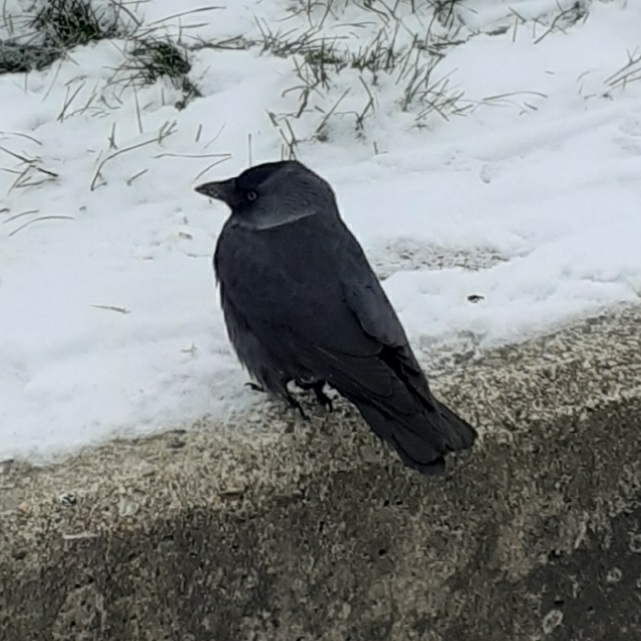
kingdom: Animalia
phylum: Chordata
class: Aves
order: Passeriformes
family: Corvidae
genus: Coloeus
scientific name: Coloeus monedula
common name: Western jackdaw
